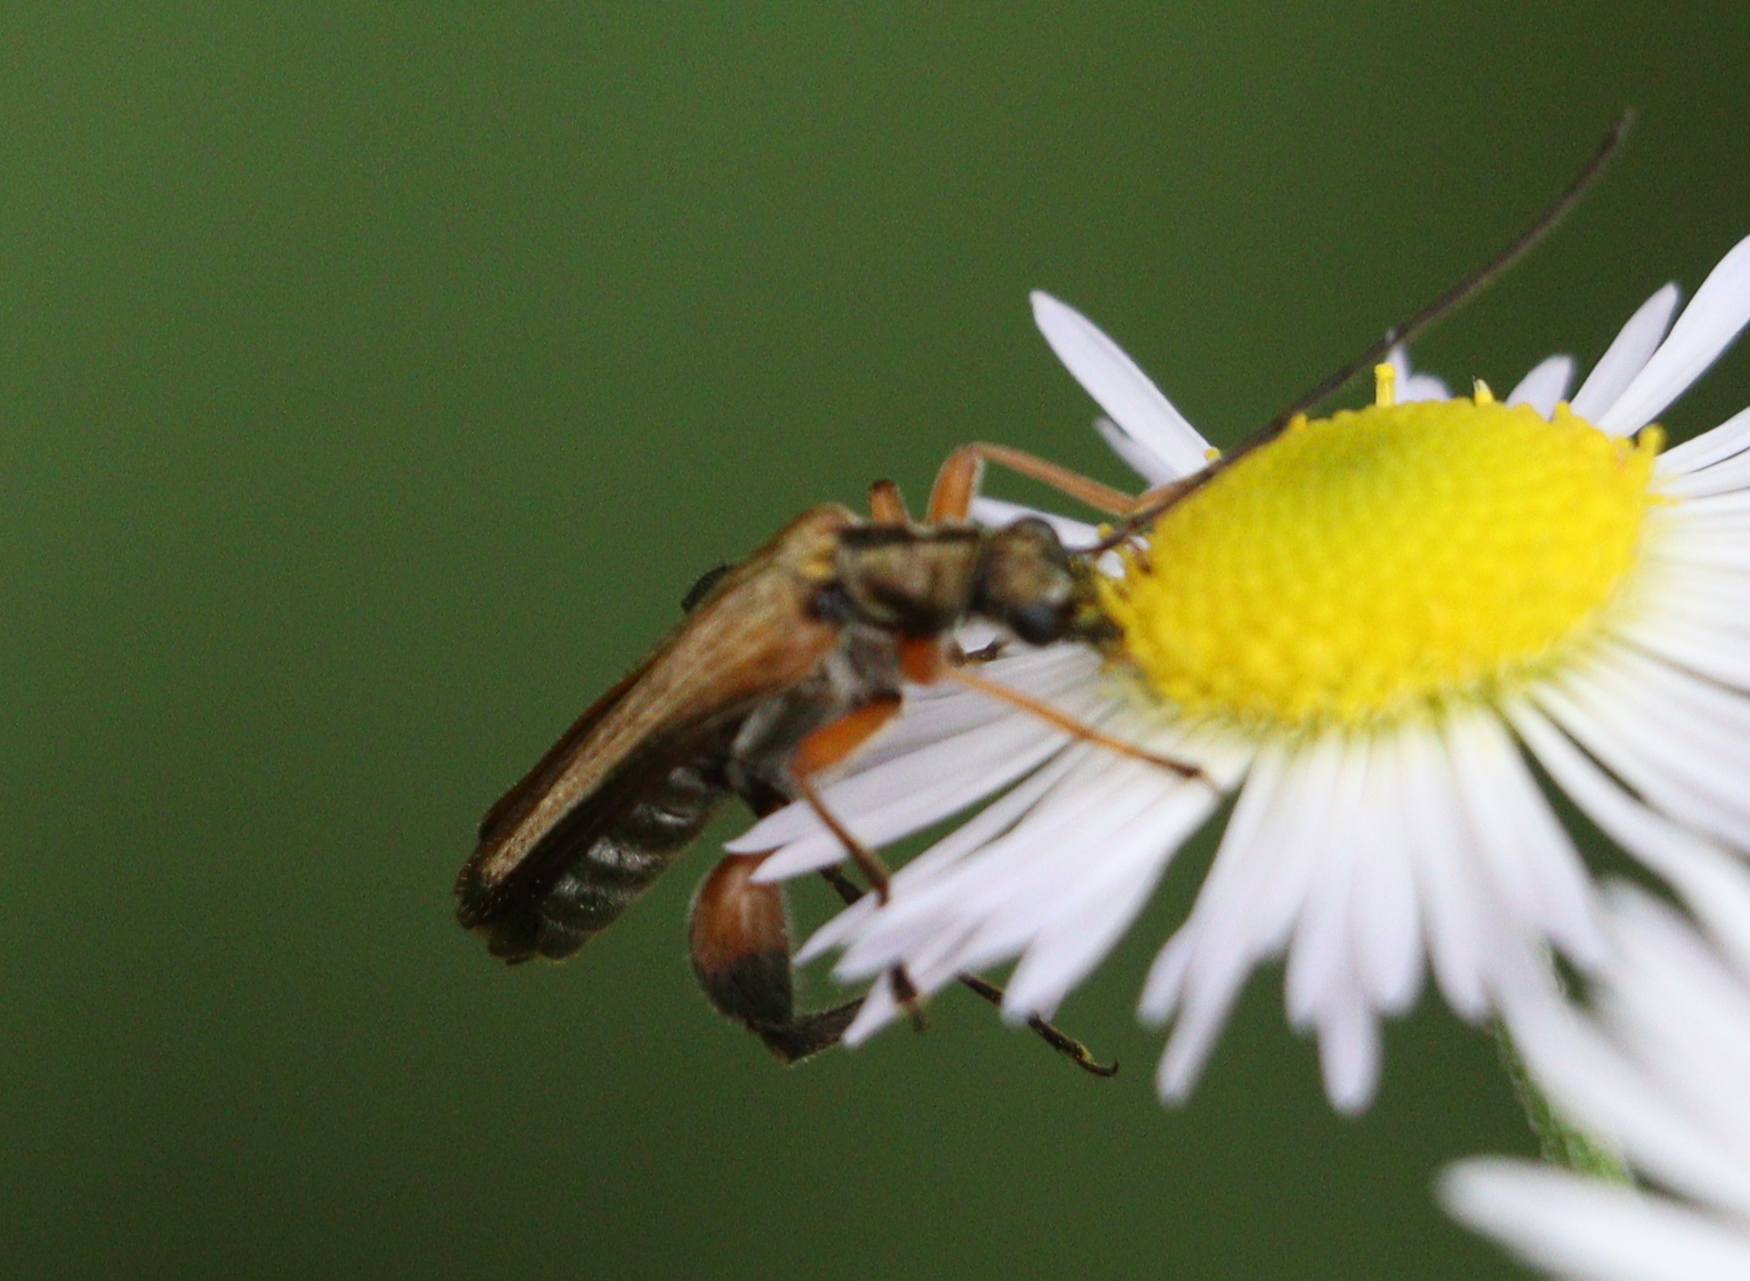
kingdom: Animalia
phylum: Arthropoda
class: Insecta
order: Coleoptera
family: Oedemeridae
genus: Oedemera
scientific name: Oedemera podagrariae
